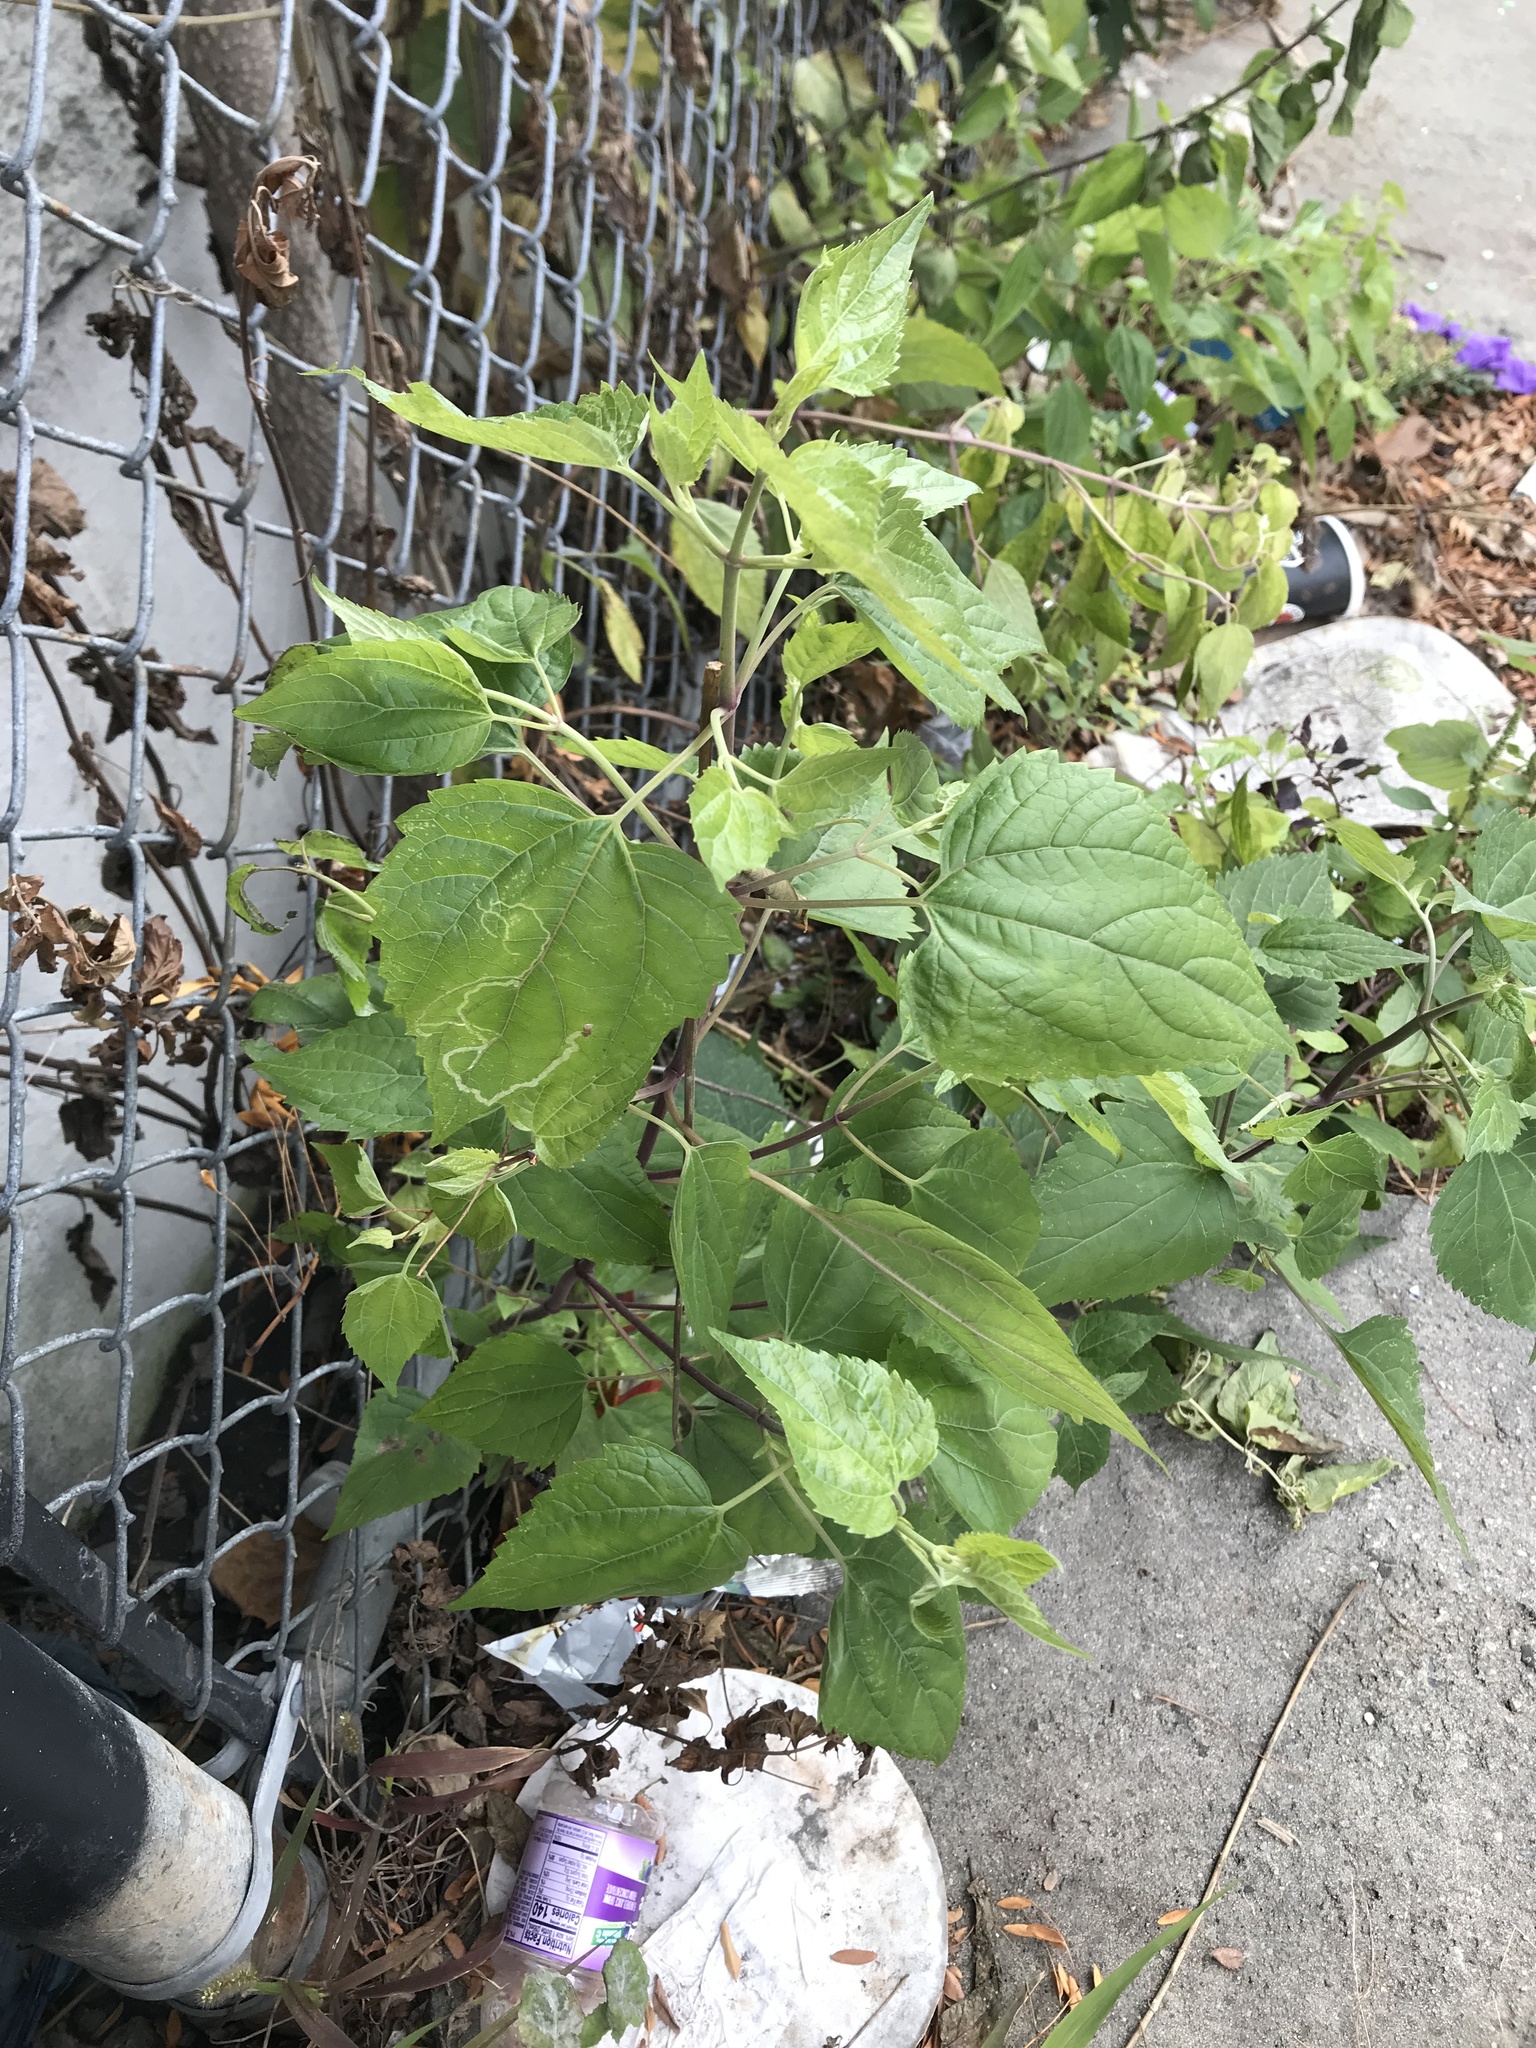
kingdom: Plantae
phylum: Tracheophyta
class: Magnoliopsida
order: Asterales
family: Asteraceae
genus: Ageratina
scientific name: Ageratina altissima
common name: White snakeroot
